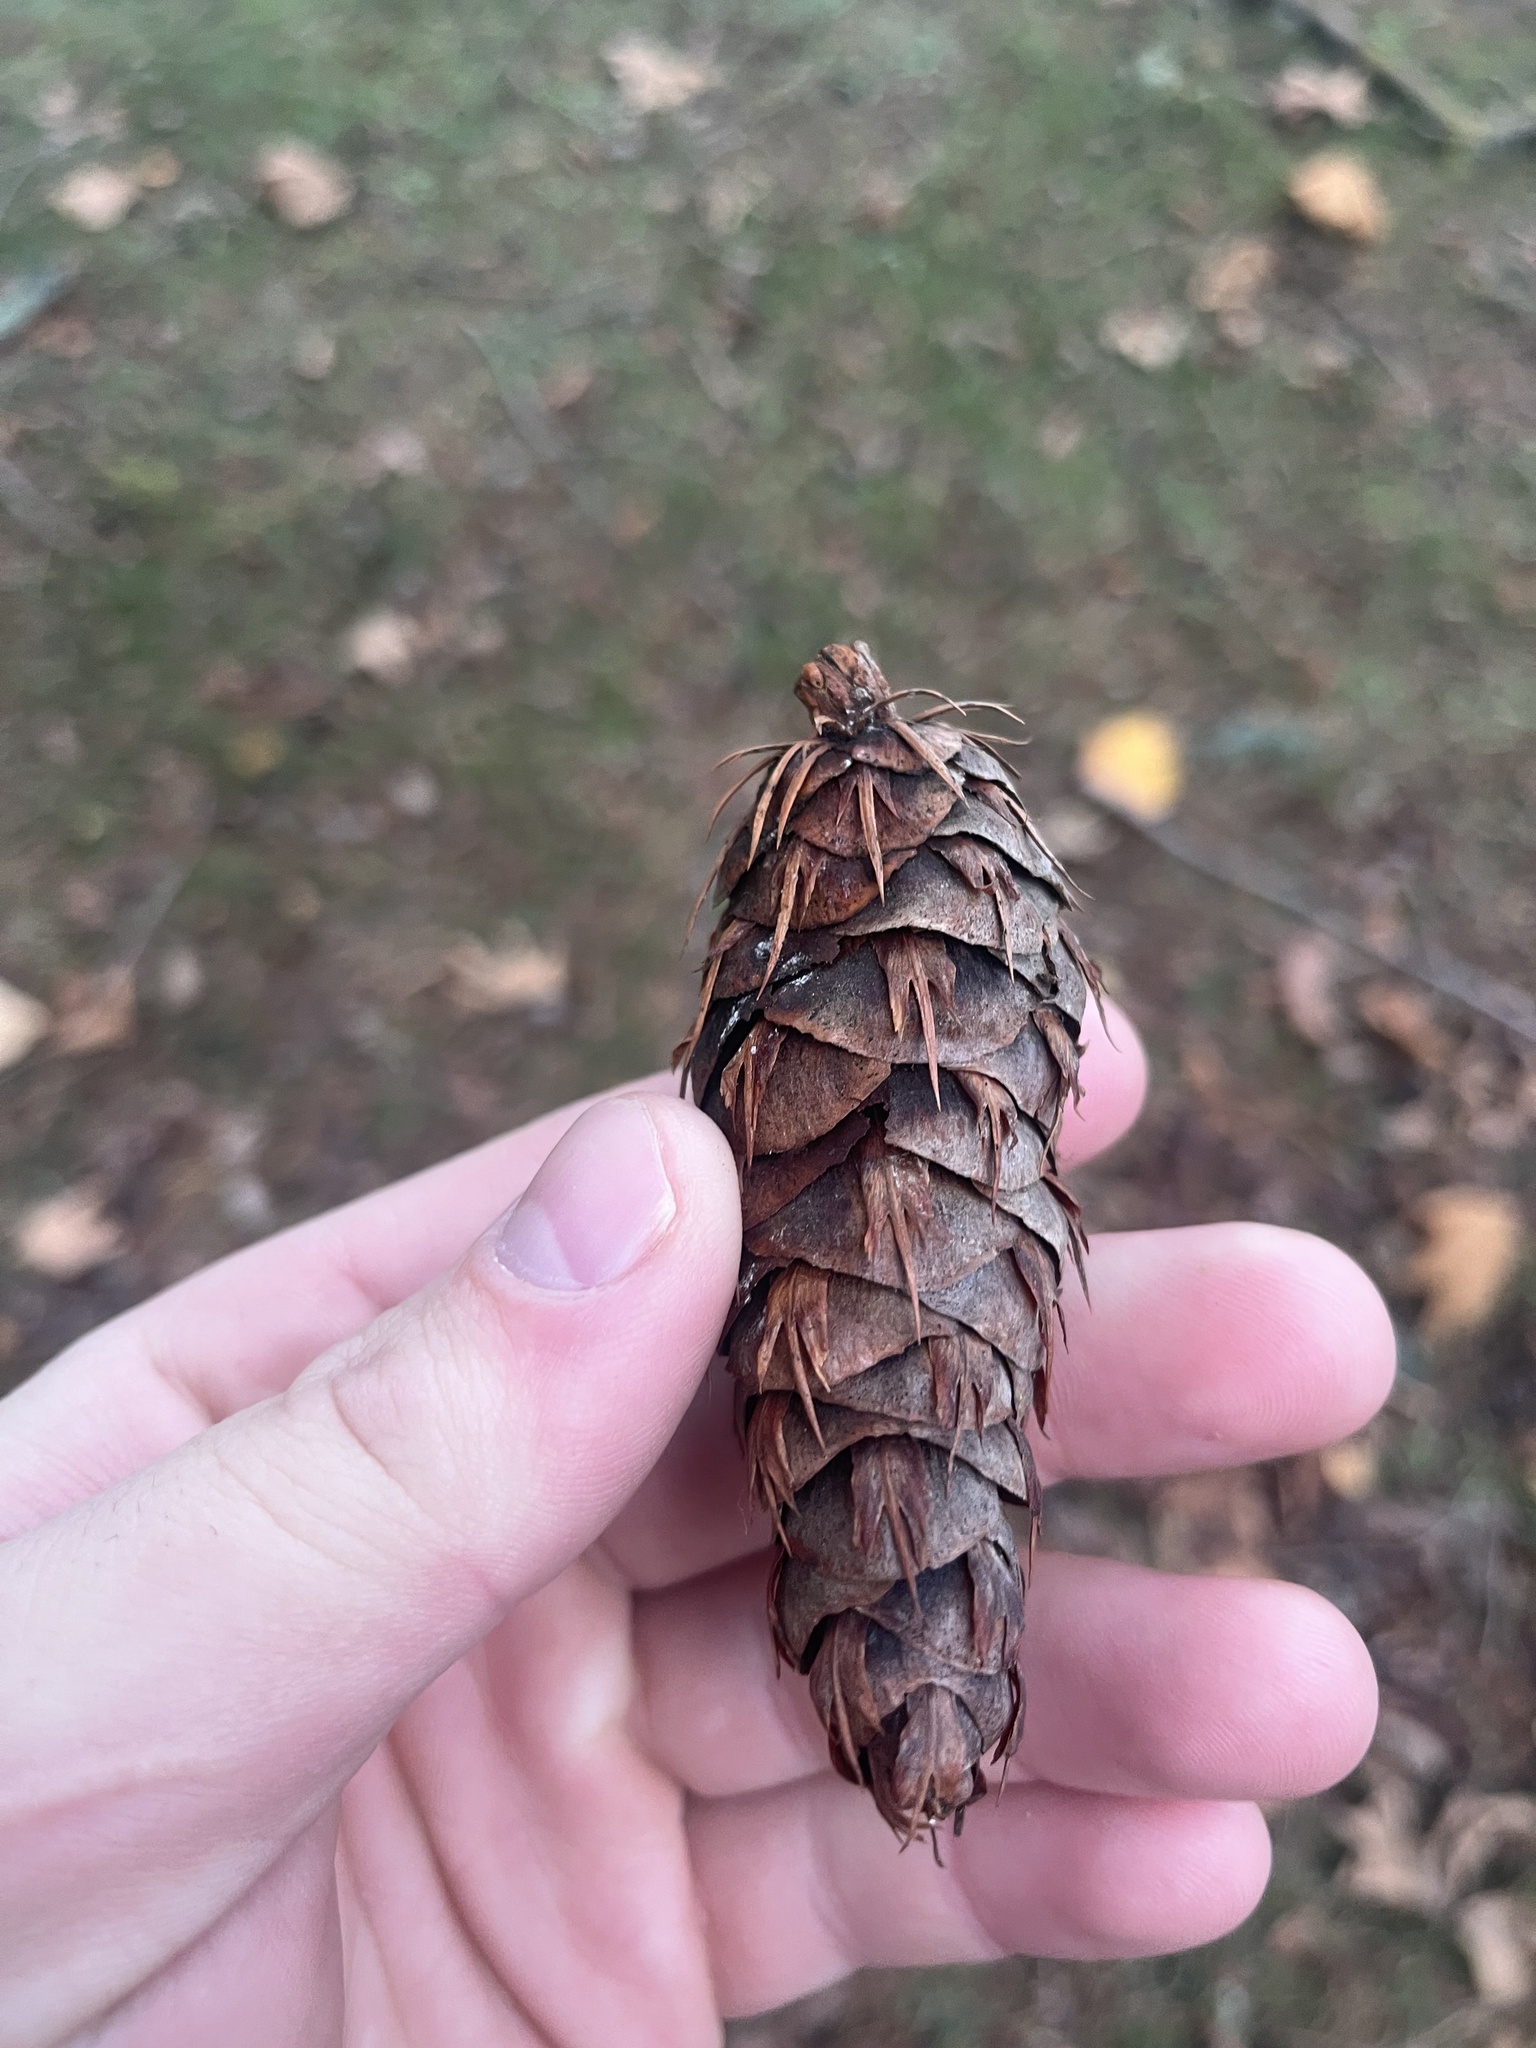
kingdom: Plantae
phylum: Tracheophyta
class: Pinopsida
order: Pinales
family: Pinaceae
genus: Pseudotsuga
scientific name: Pseudotsuga menziesii
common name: Douglas fir
